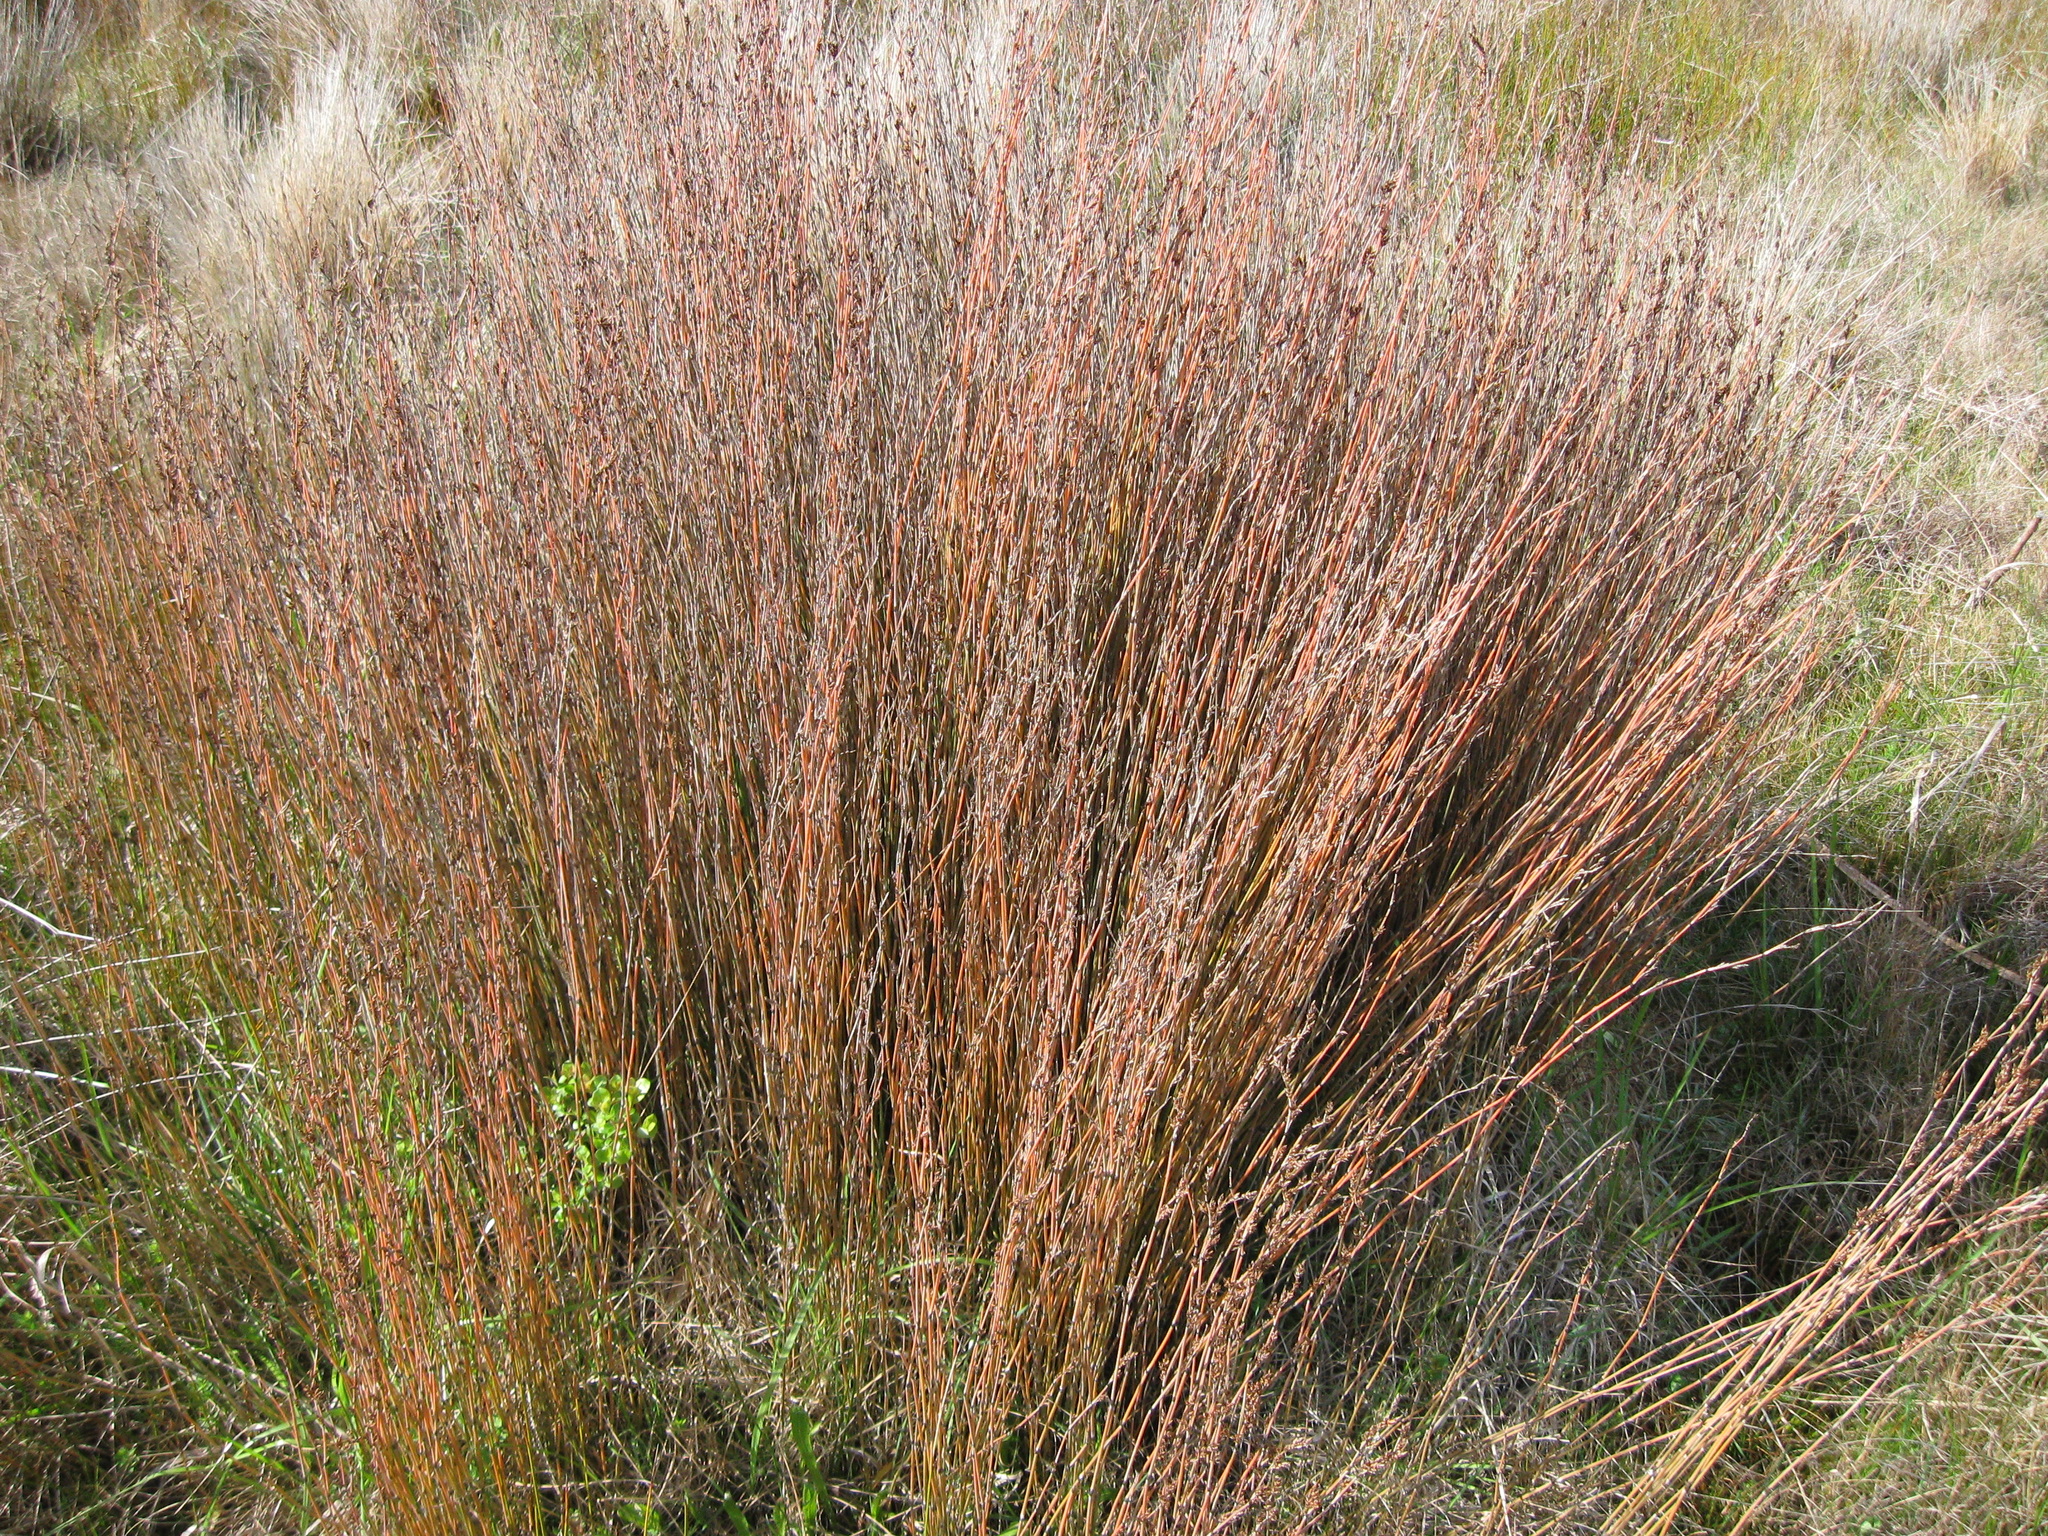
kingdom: Plantae
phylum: Tracheophyta
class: Liliopsida
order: Poales
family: Restionaceae
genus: Apodasmia
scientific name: Apodasmia similis
